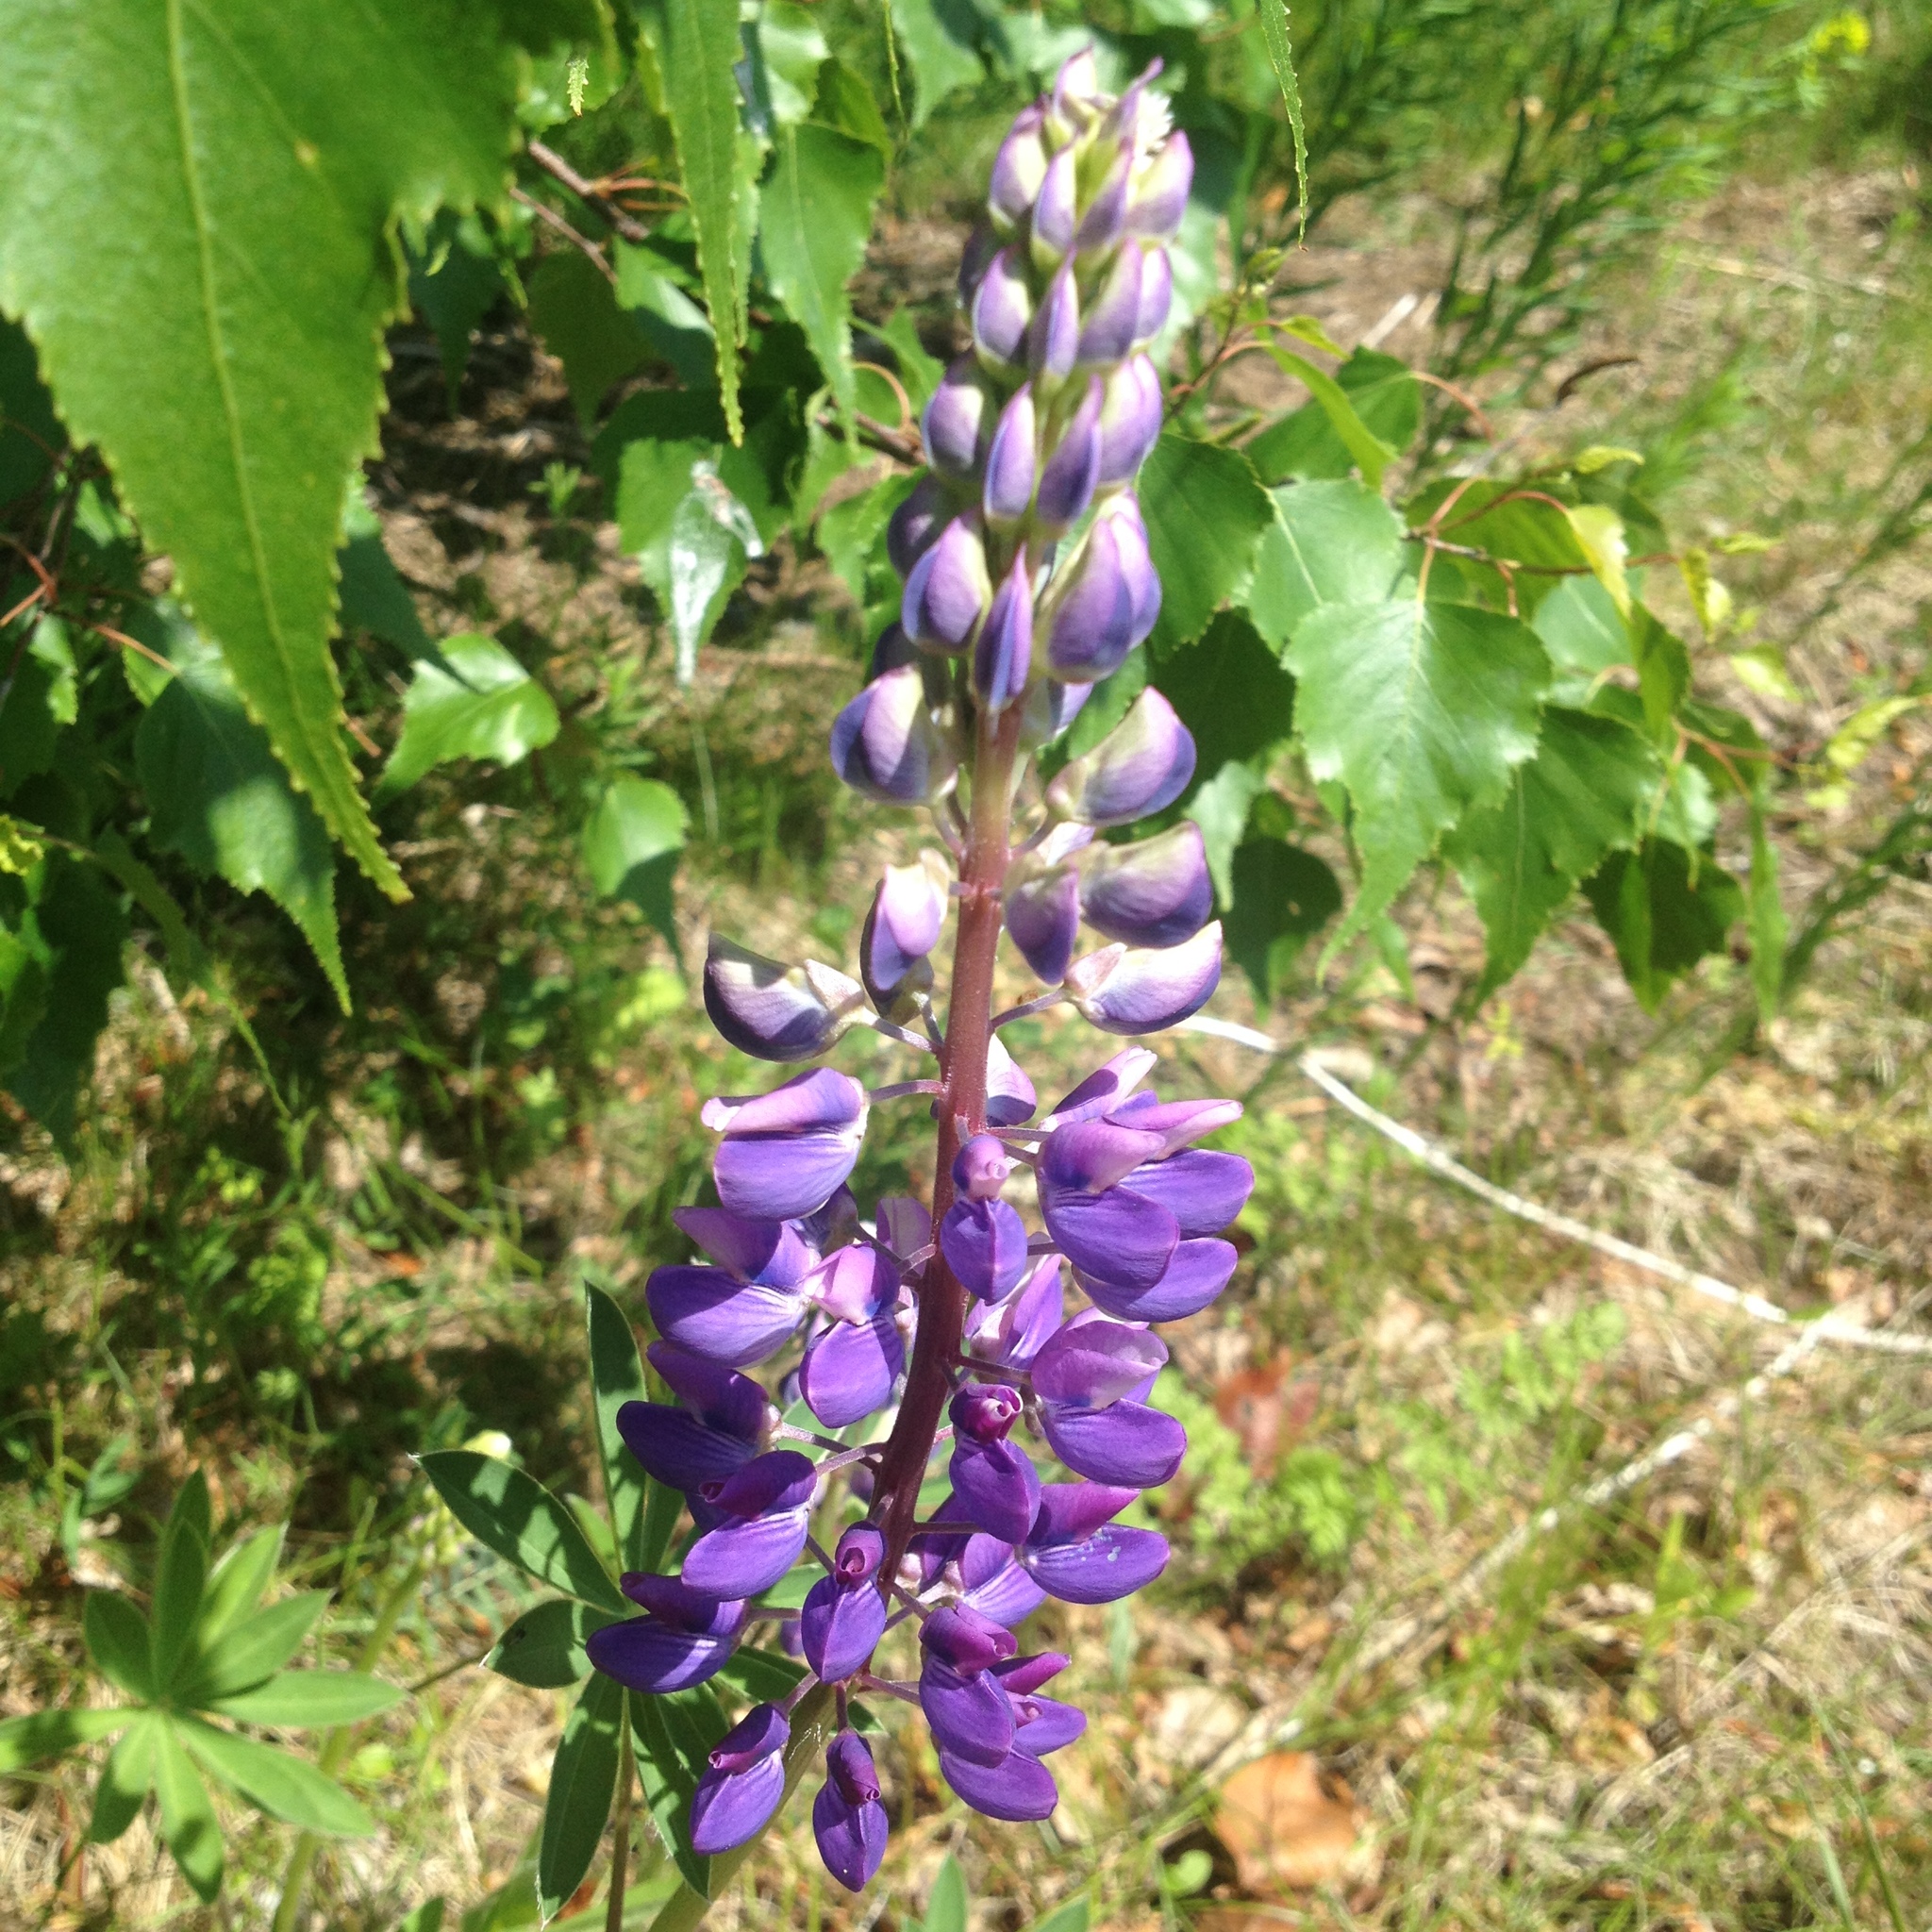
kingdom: Plantae
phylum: Tracheophyta
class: Magnoliopsida
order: Fabales
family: Fabaceae
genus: Lupinus
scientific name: Lupinus polyphyllus
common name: Garden lupin
